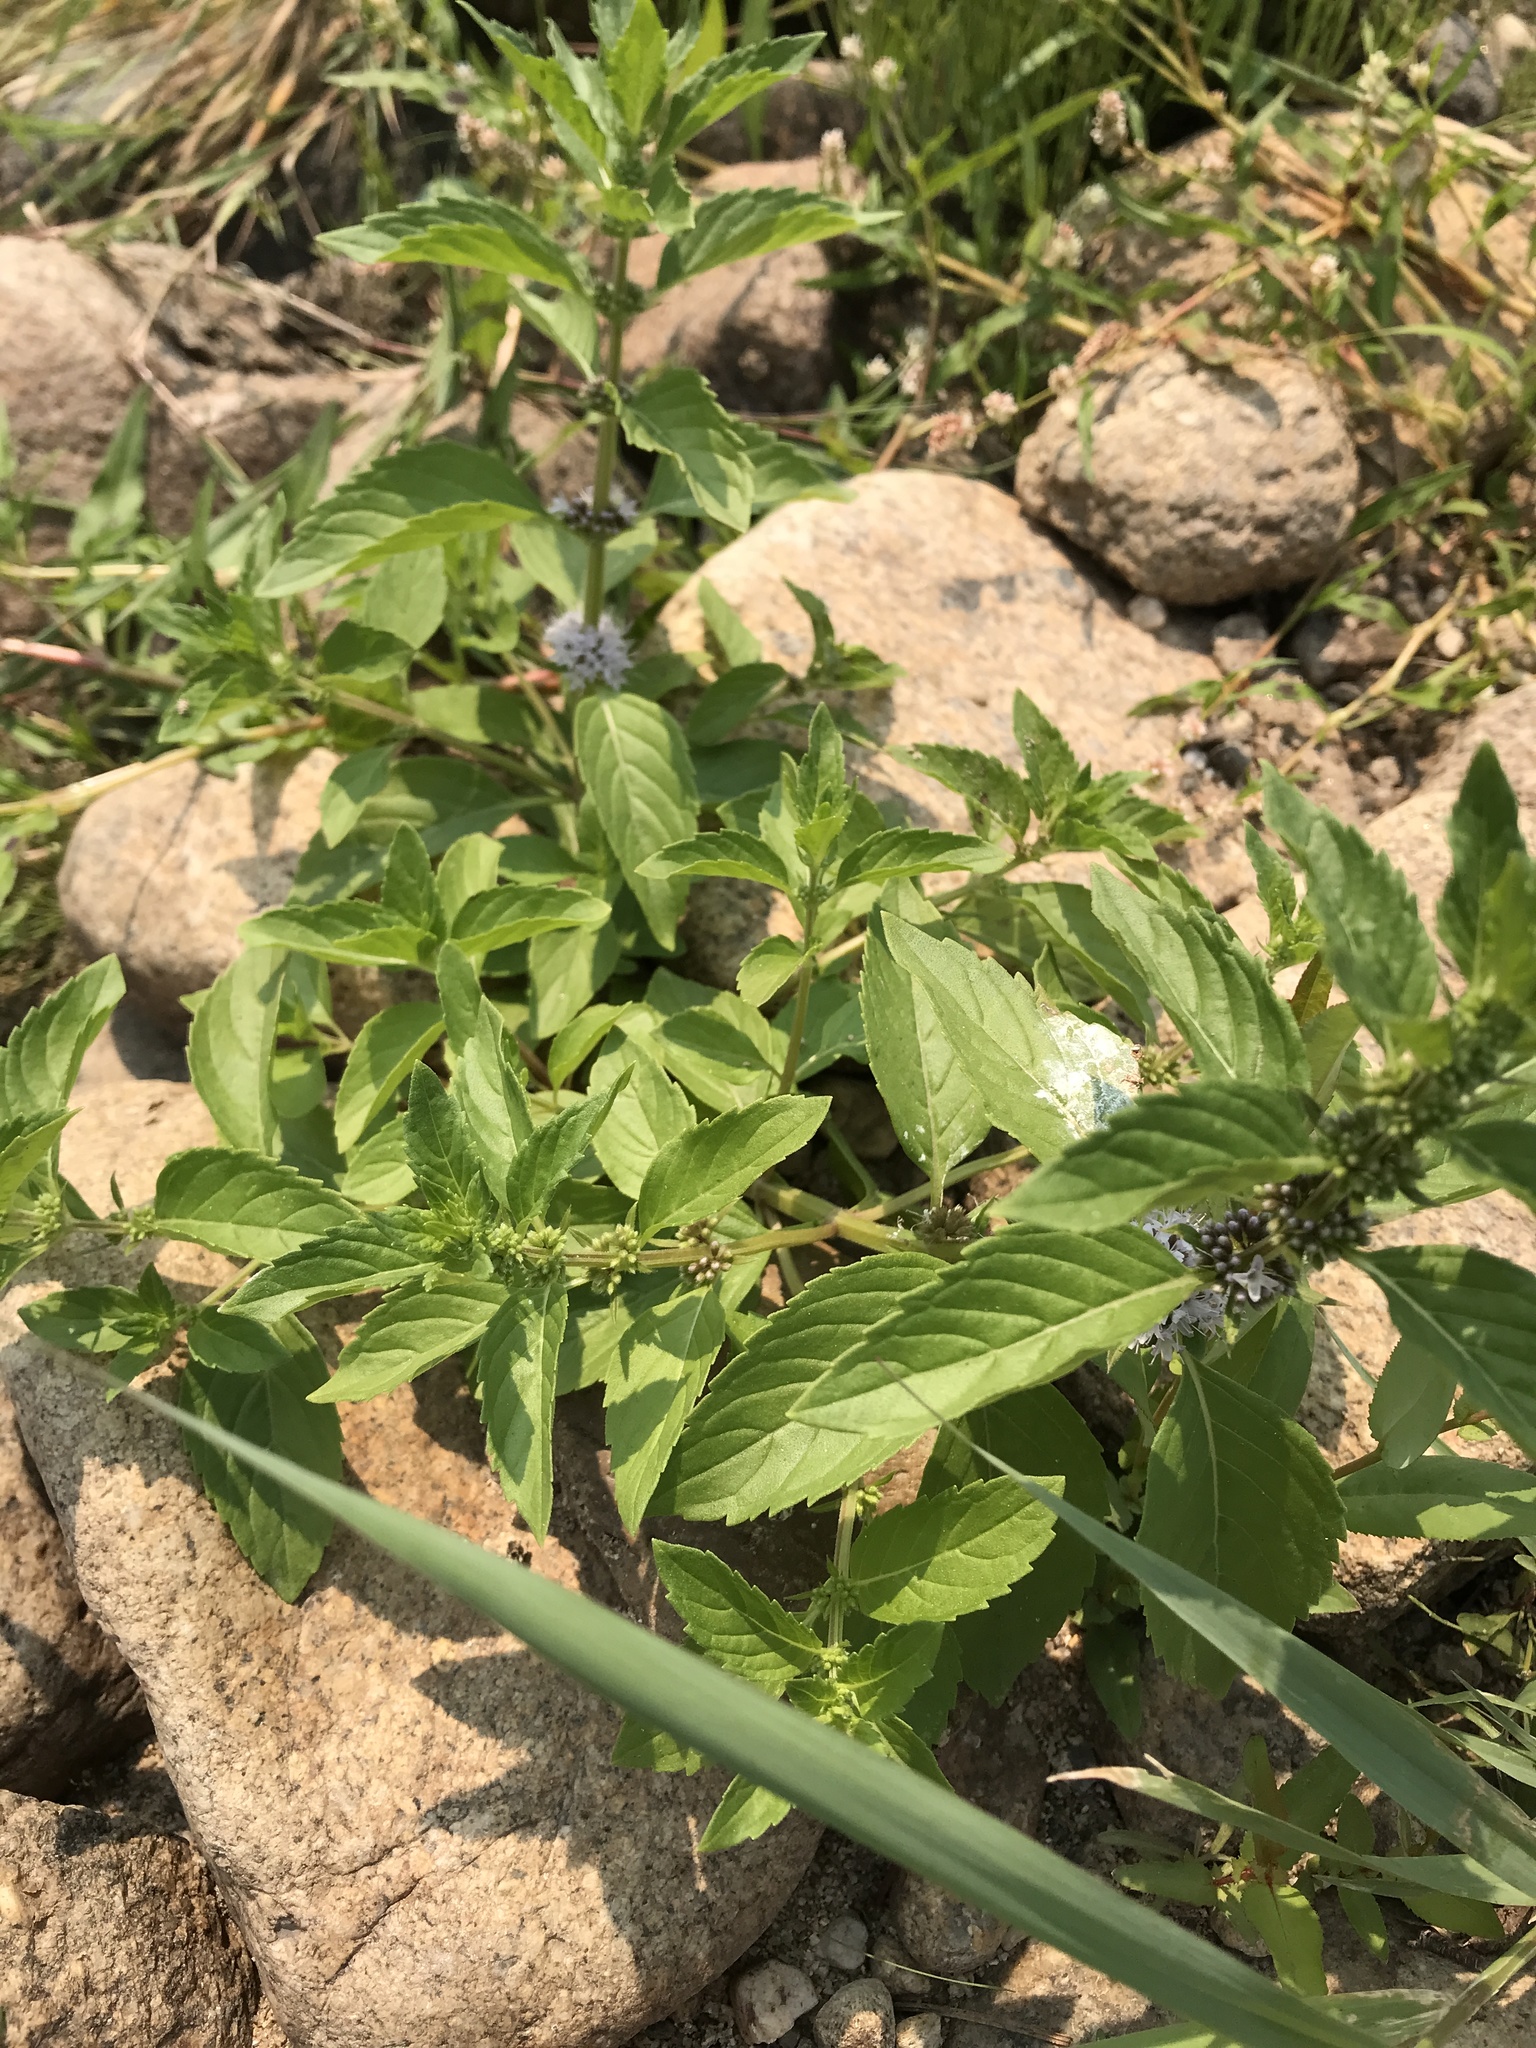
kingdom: Plantae
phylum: Tracheophyta
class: Magnoliopsida
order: Lamiales
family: Lamiaceae
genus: Mentha
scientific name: Mentha canadensis
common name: American corn mint
